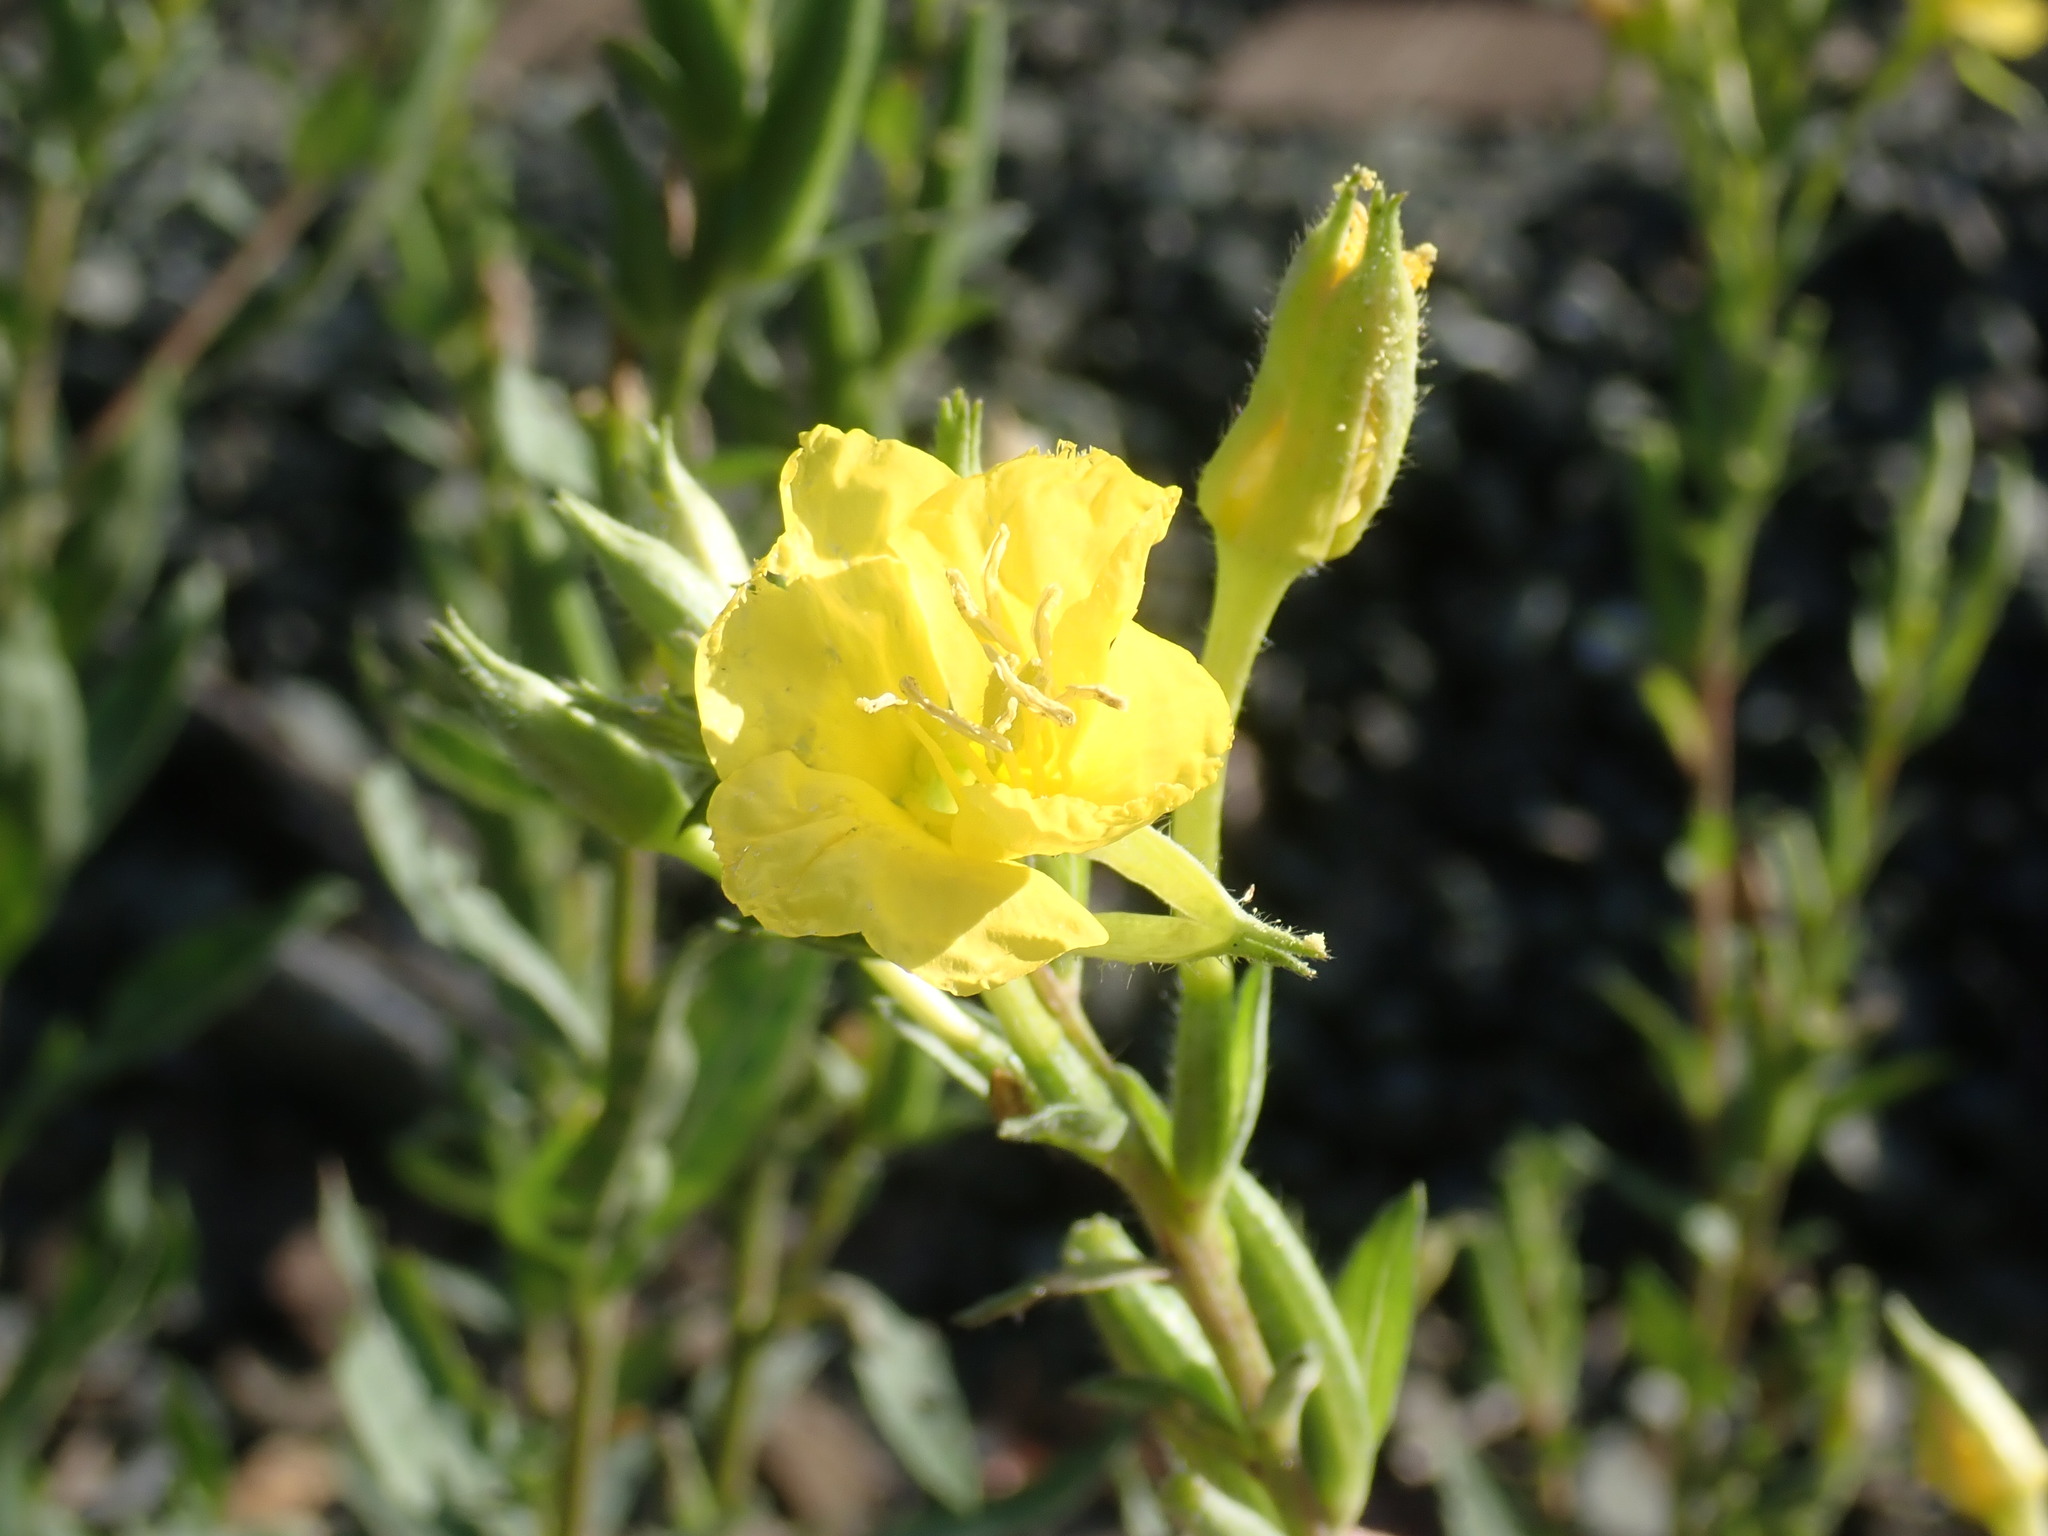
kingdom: Plantae
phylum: Tracheophyta
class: Magnoliopsida
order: Myrtales
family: Onagraceae
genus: Oenothera
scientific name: Oenothera biennis
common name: Common evening-primrose
